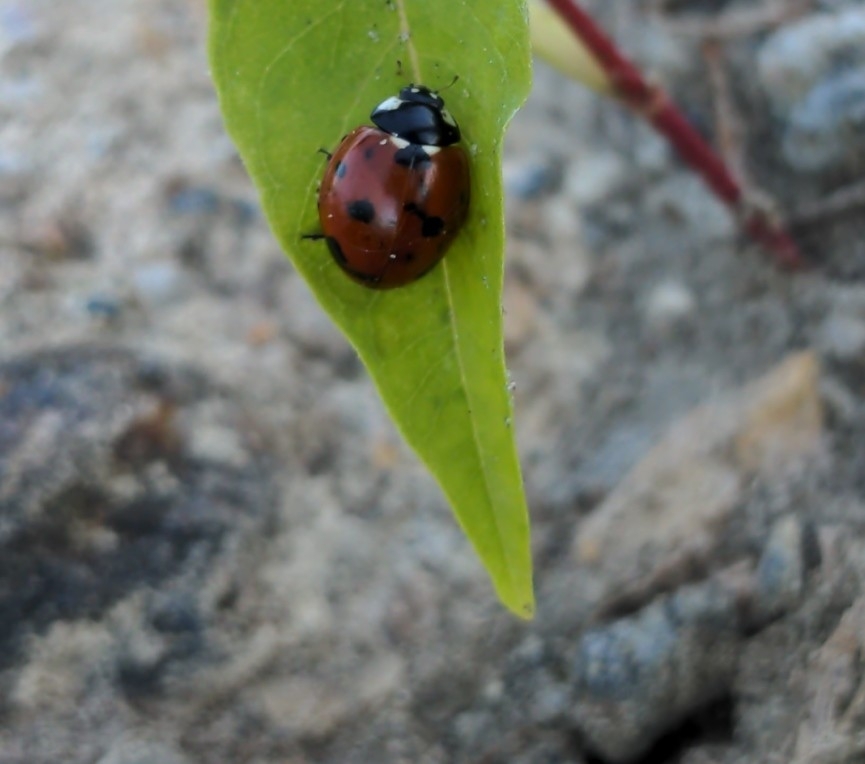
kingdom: Animalia
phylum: Arthropoda
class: Insecta
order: Coleoptera
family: Coccinellidae
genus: Coccinella
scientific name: Coccinella septempunctata
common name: Sevenspotted lady beetle
